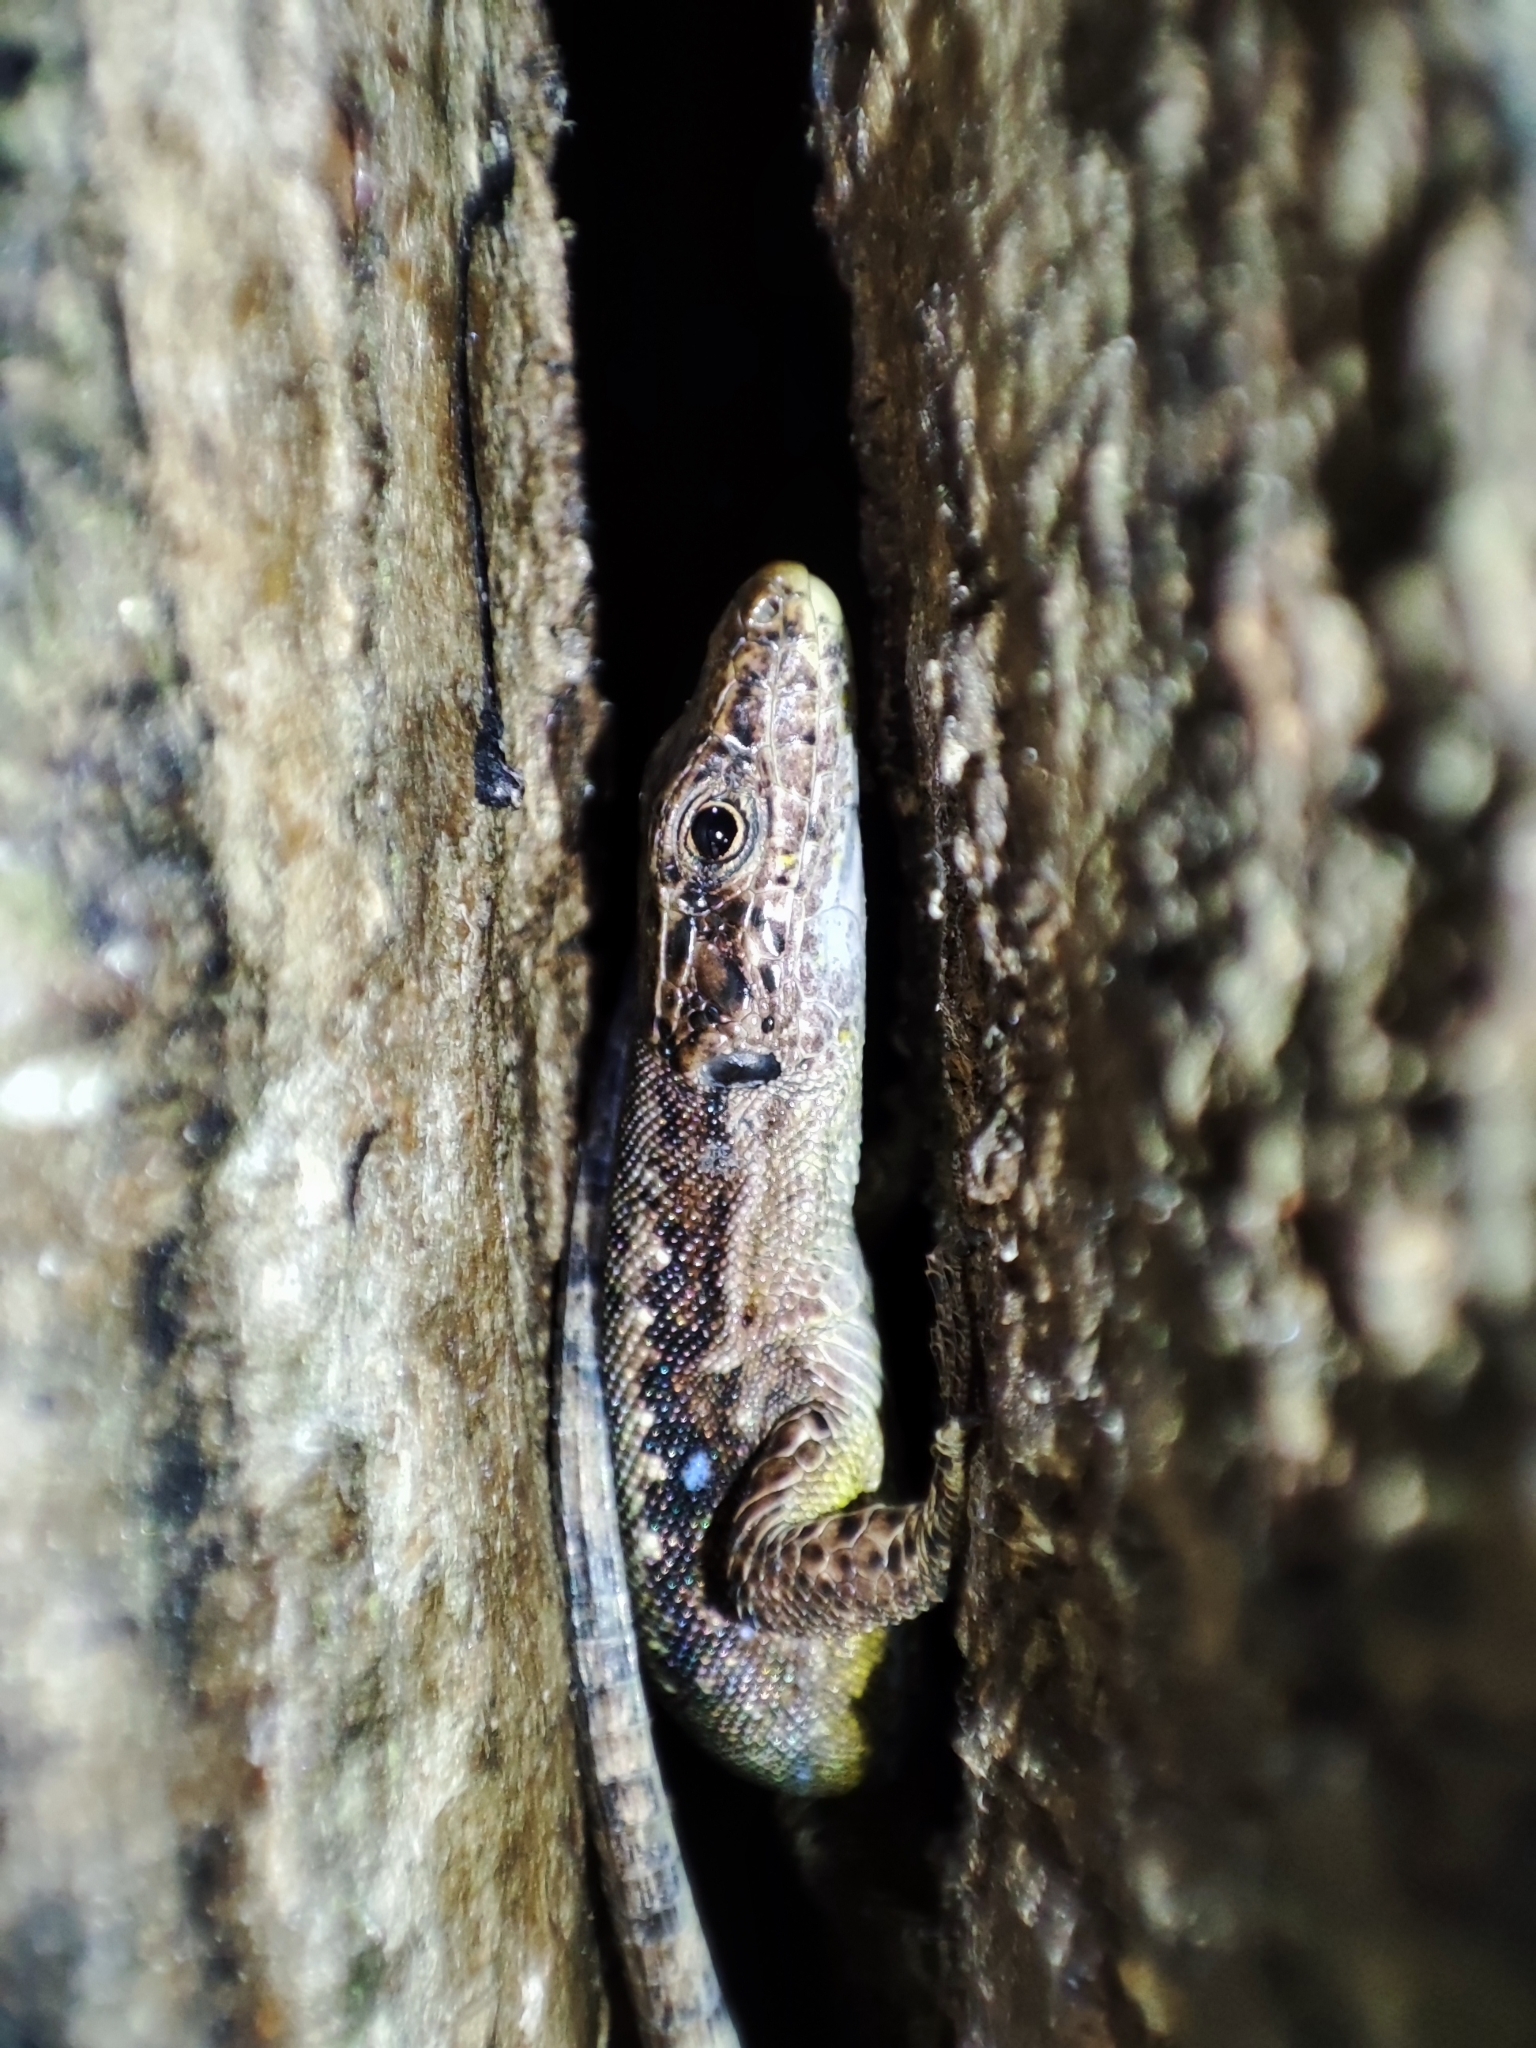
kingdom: Animalia
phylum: Chordata
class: Squamata
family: Lacertidae
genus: Darevskia
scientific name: Darevskia
